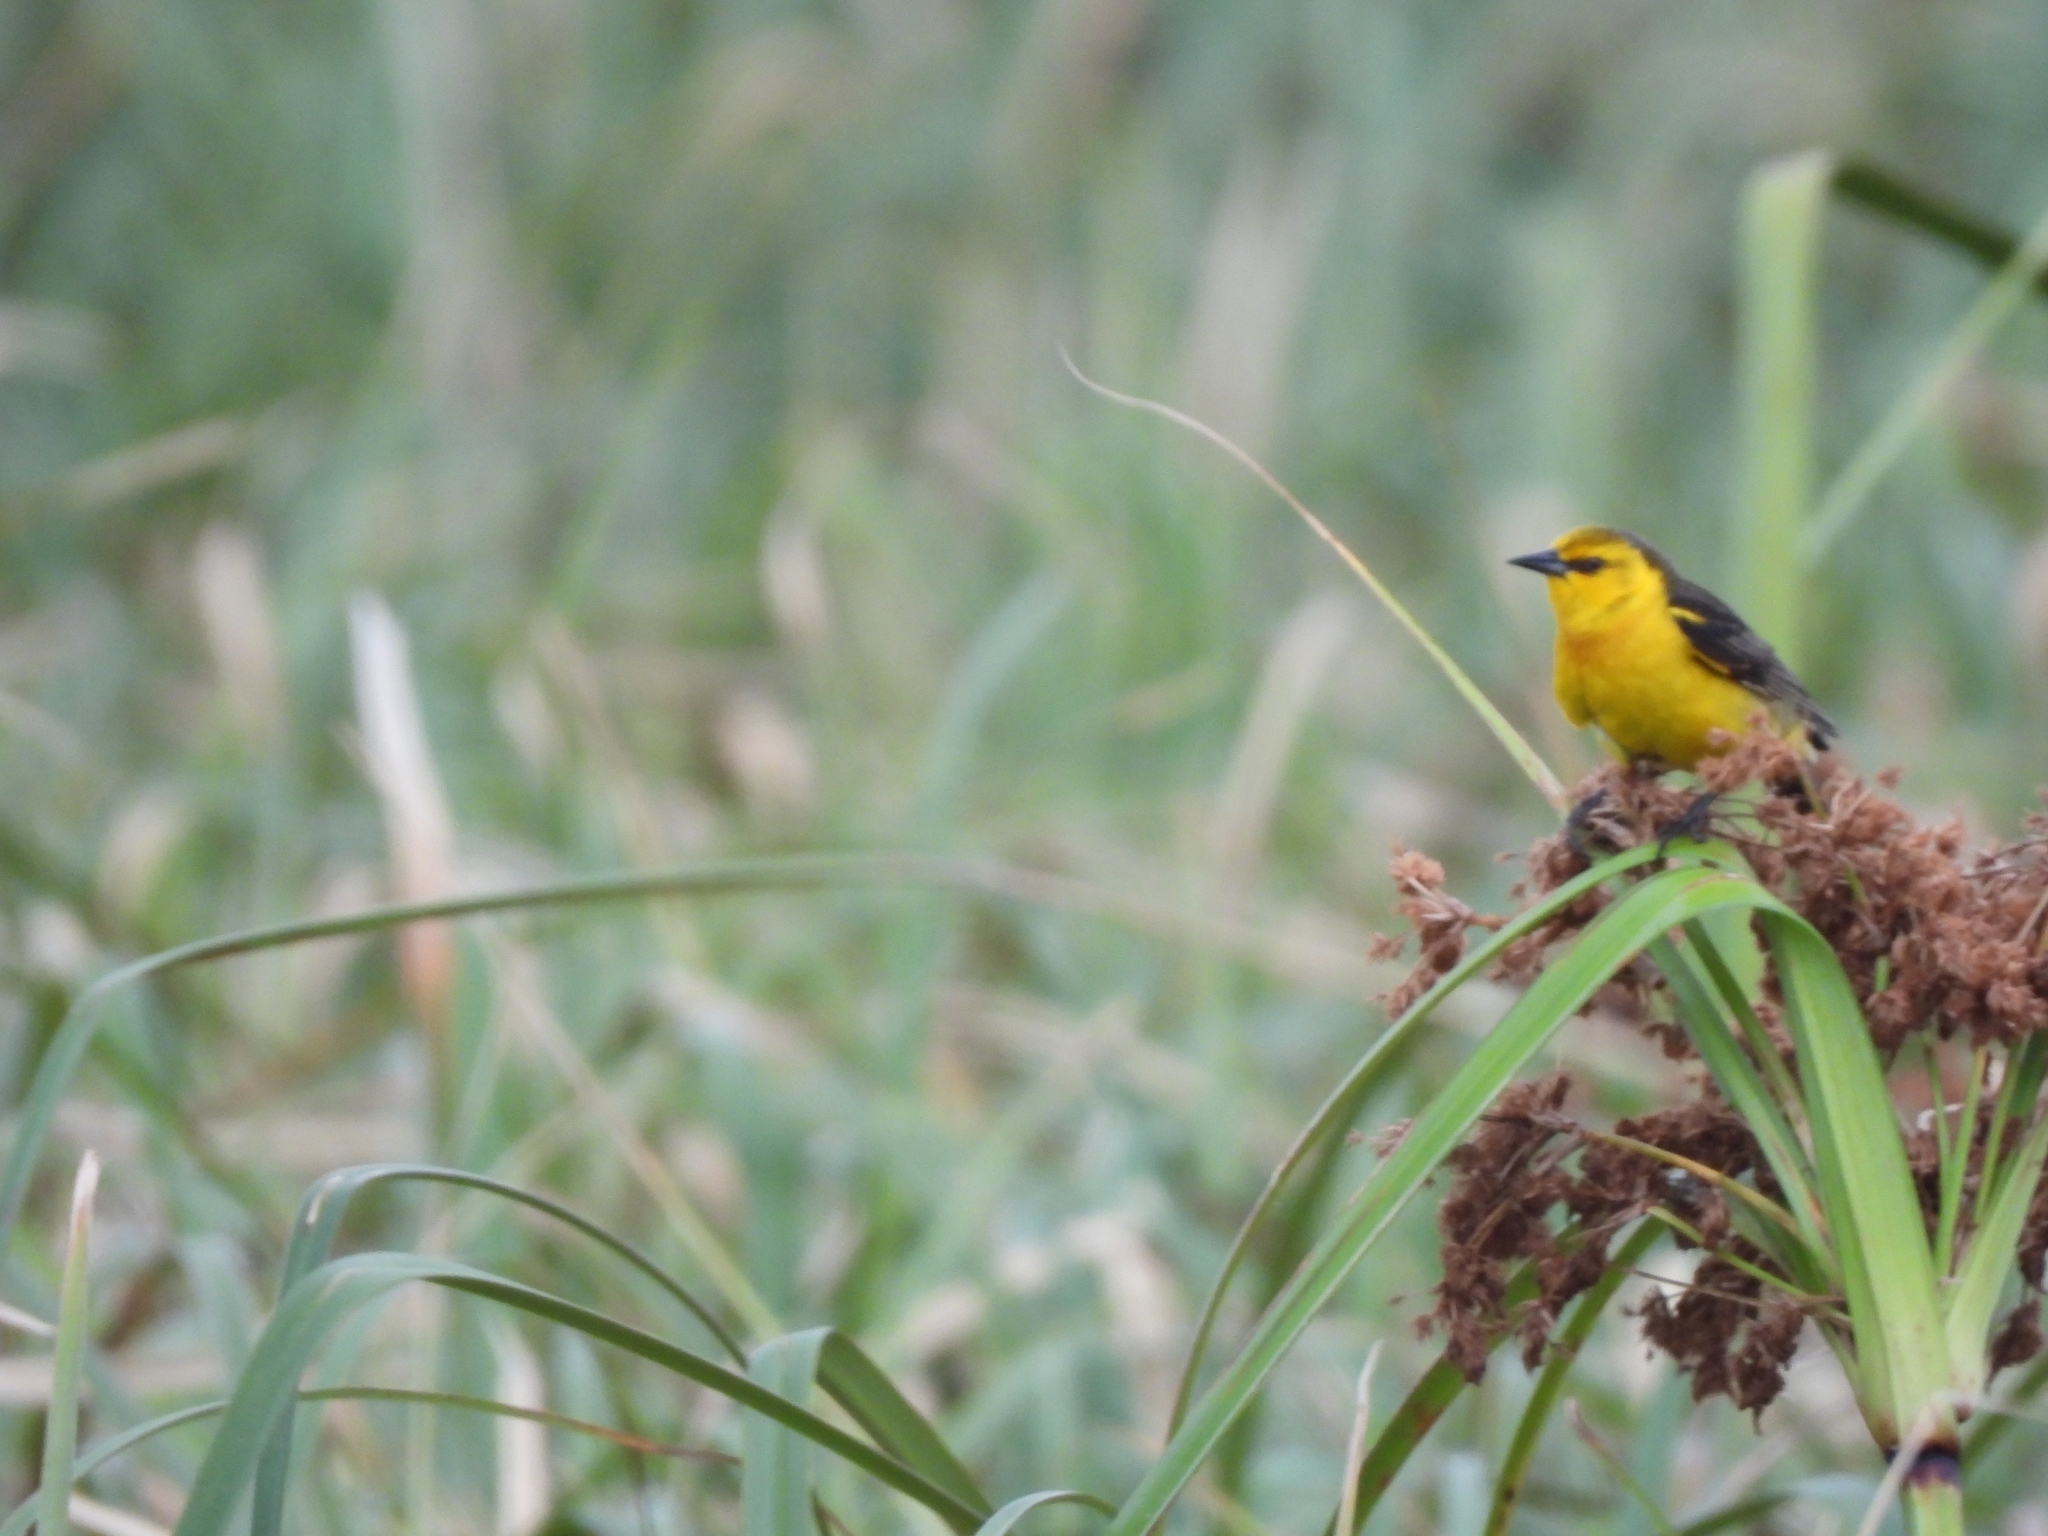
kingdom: Animalia
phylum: Chordata
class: Aves
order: Passeriformes
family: Icteridae
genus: Xanthopsar
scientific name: Xanthopsar flavus
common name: Saffron-cowled blackbird
